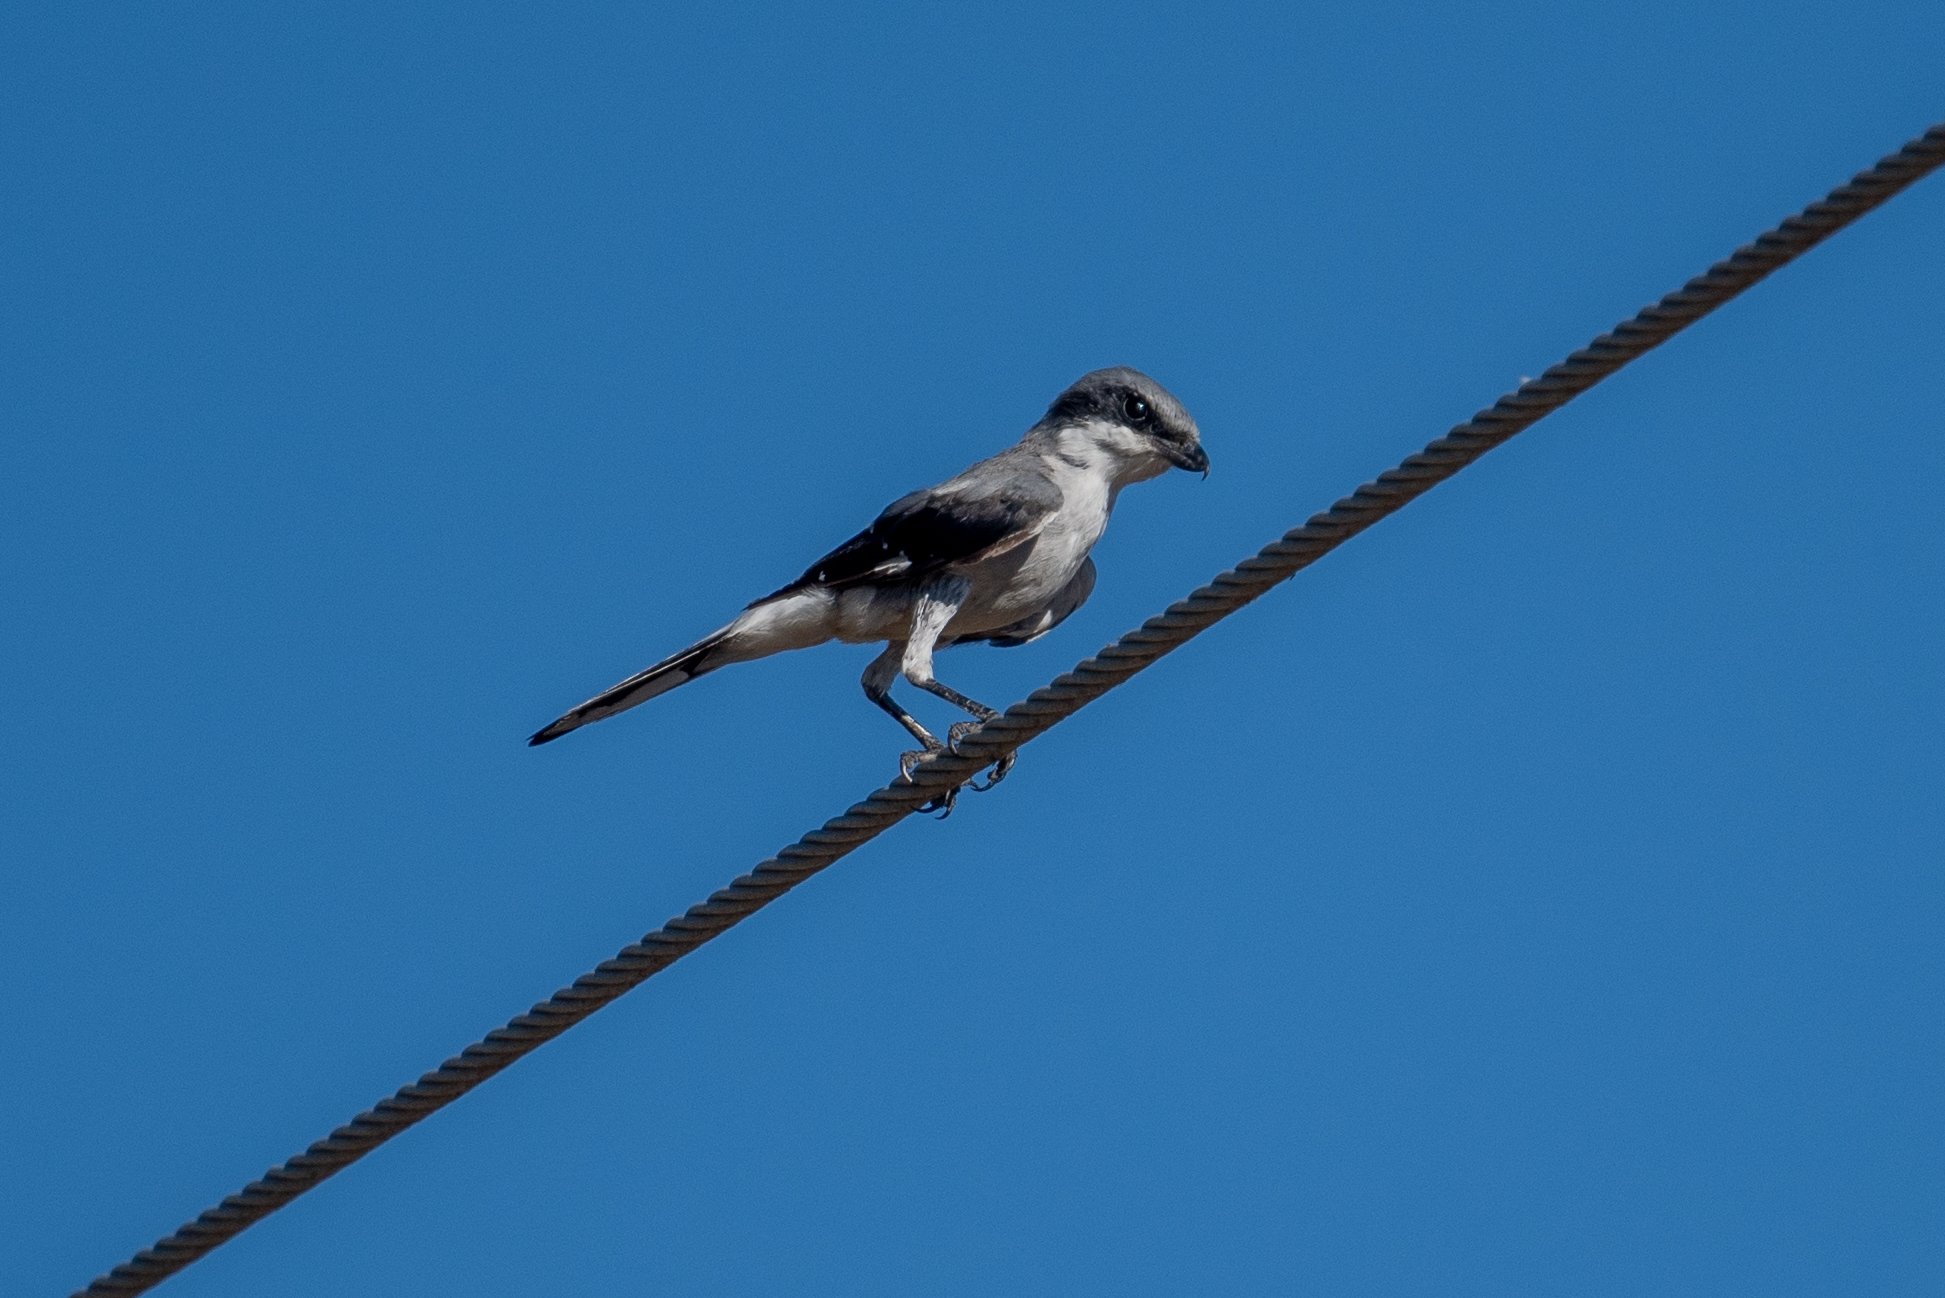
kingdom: Animalia
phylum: Chordata
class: Aves
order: Passeriformes
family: Laniidae
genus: Lanius
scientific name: Lanius ludovicianus
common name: Loggerhead shrike
